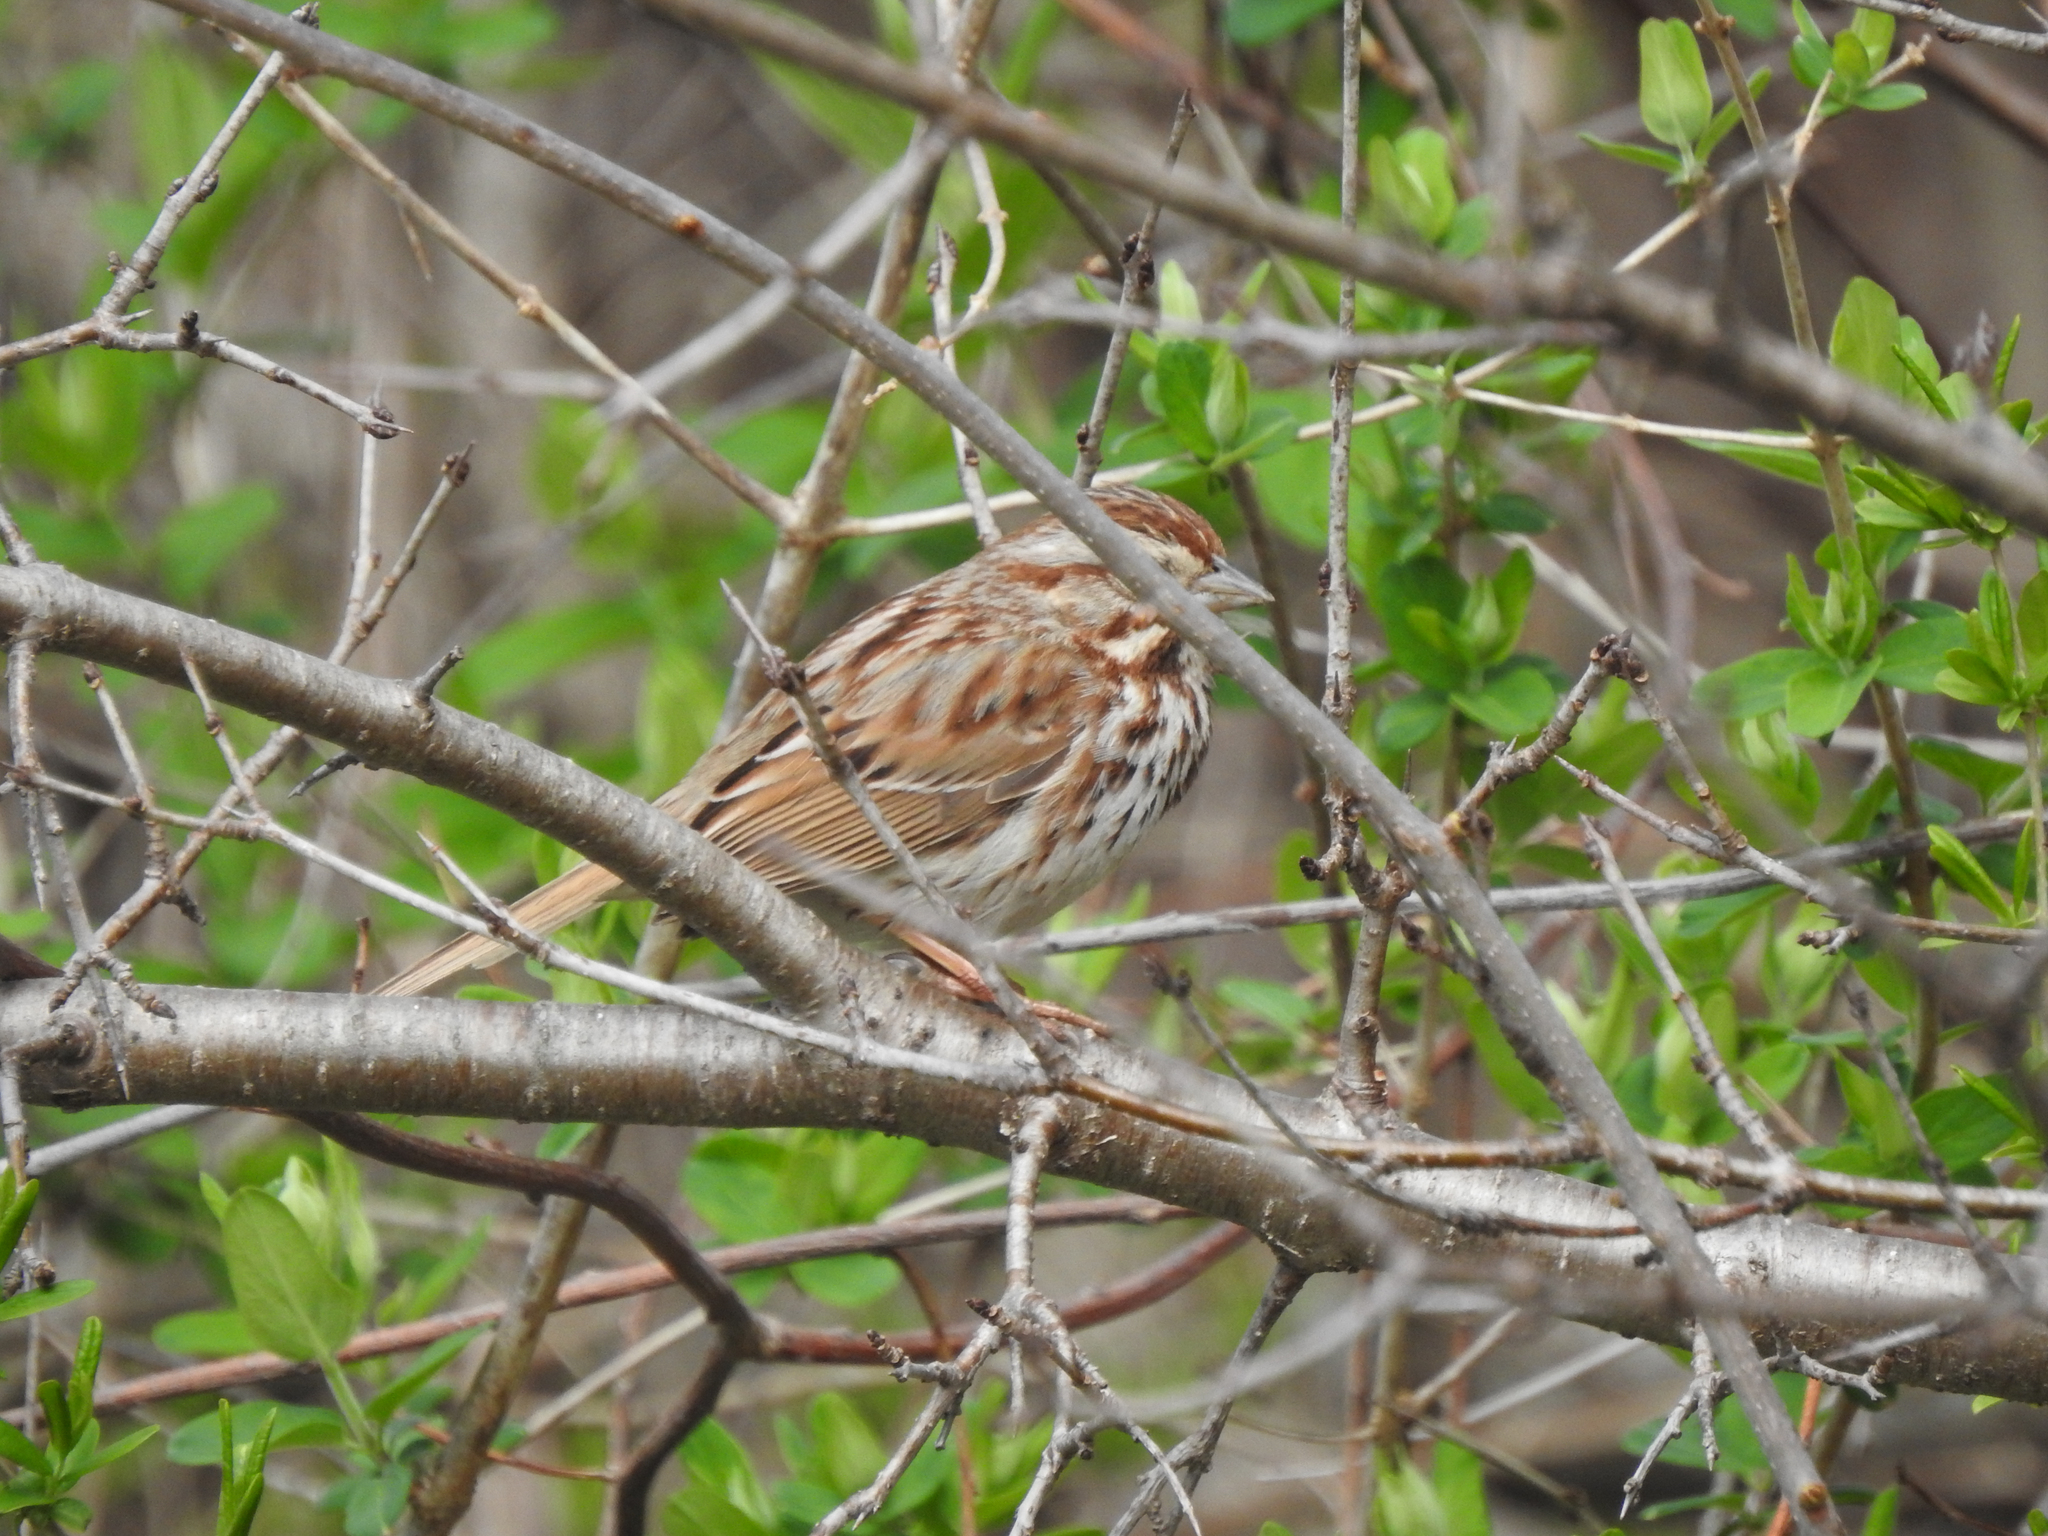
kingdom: Animalia
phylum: Chordata
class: Aves
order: Passeriformes
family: Passerellidae
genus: Melospiza
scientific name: Melospiza melodia
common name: Song sparrow
